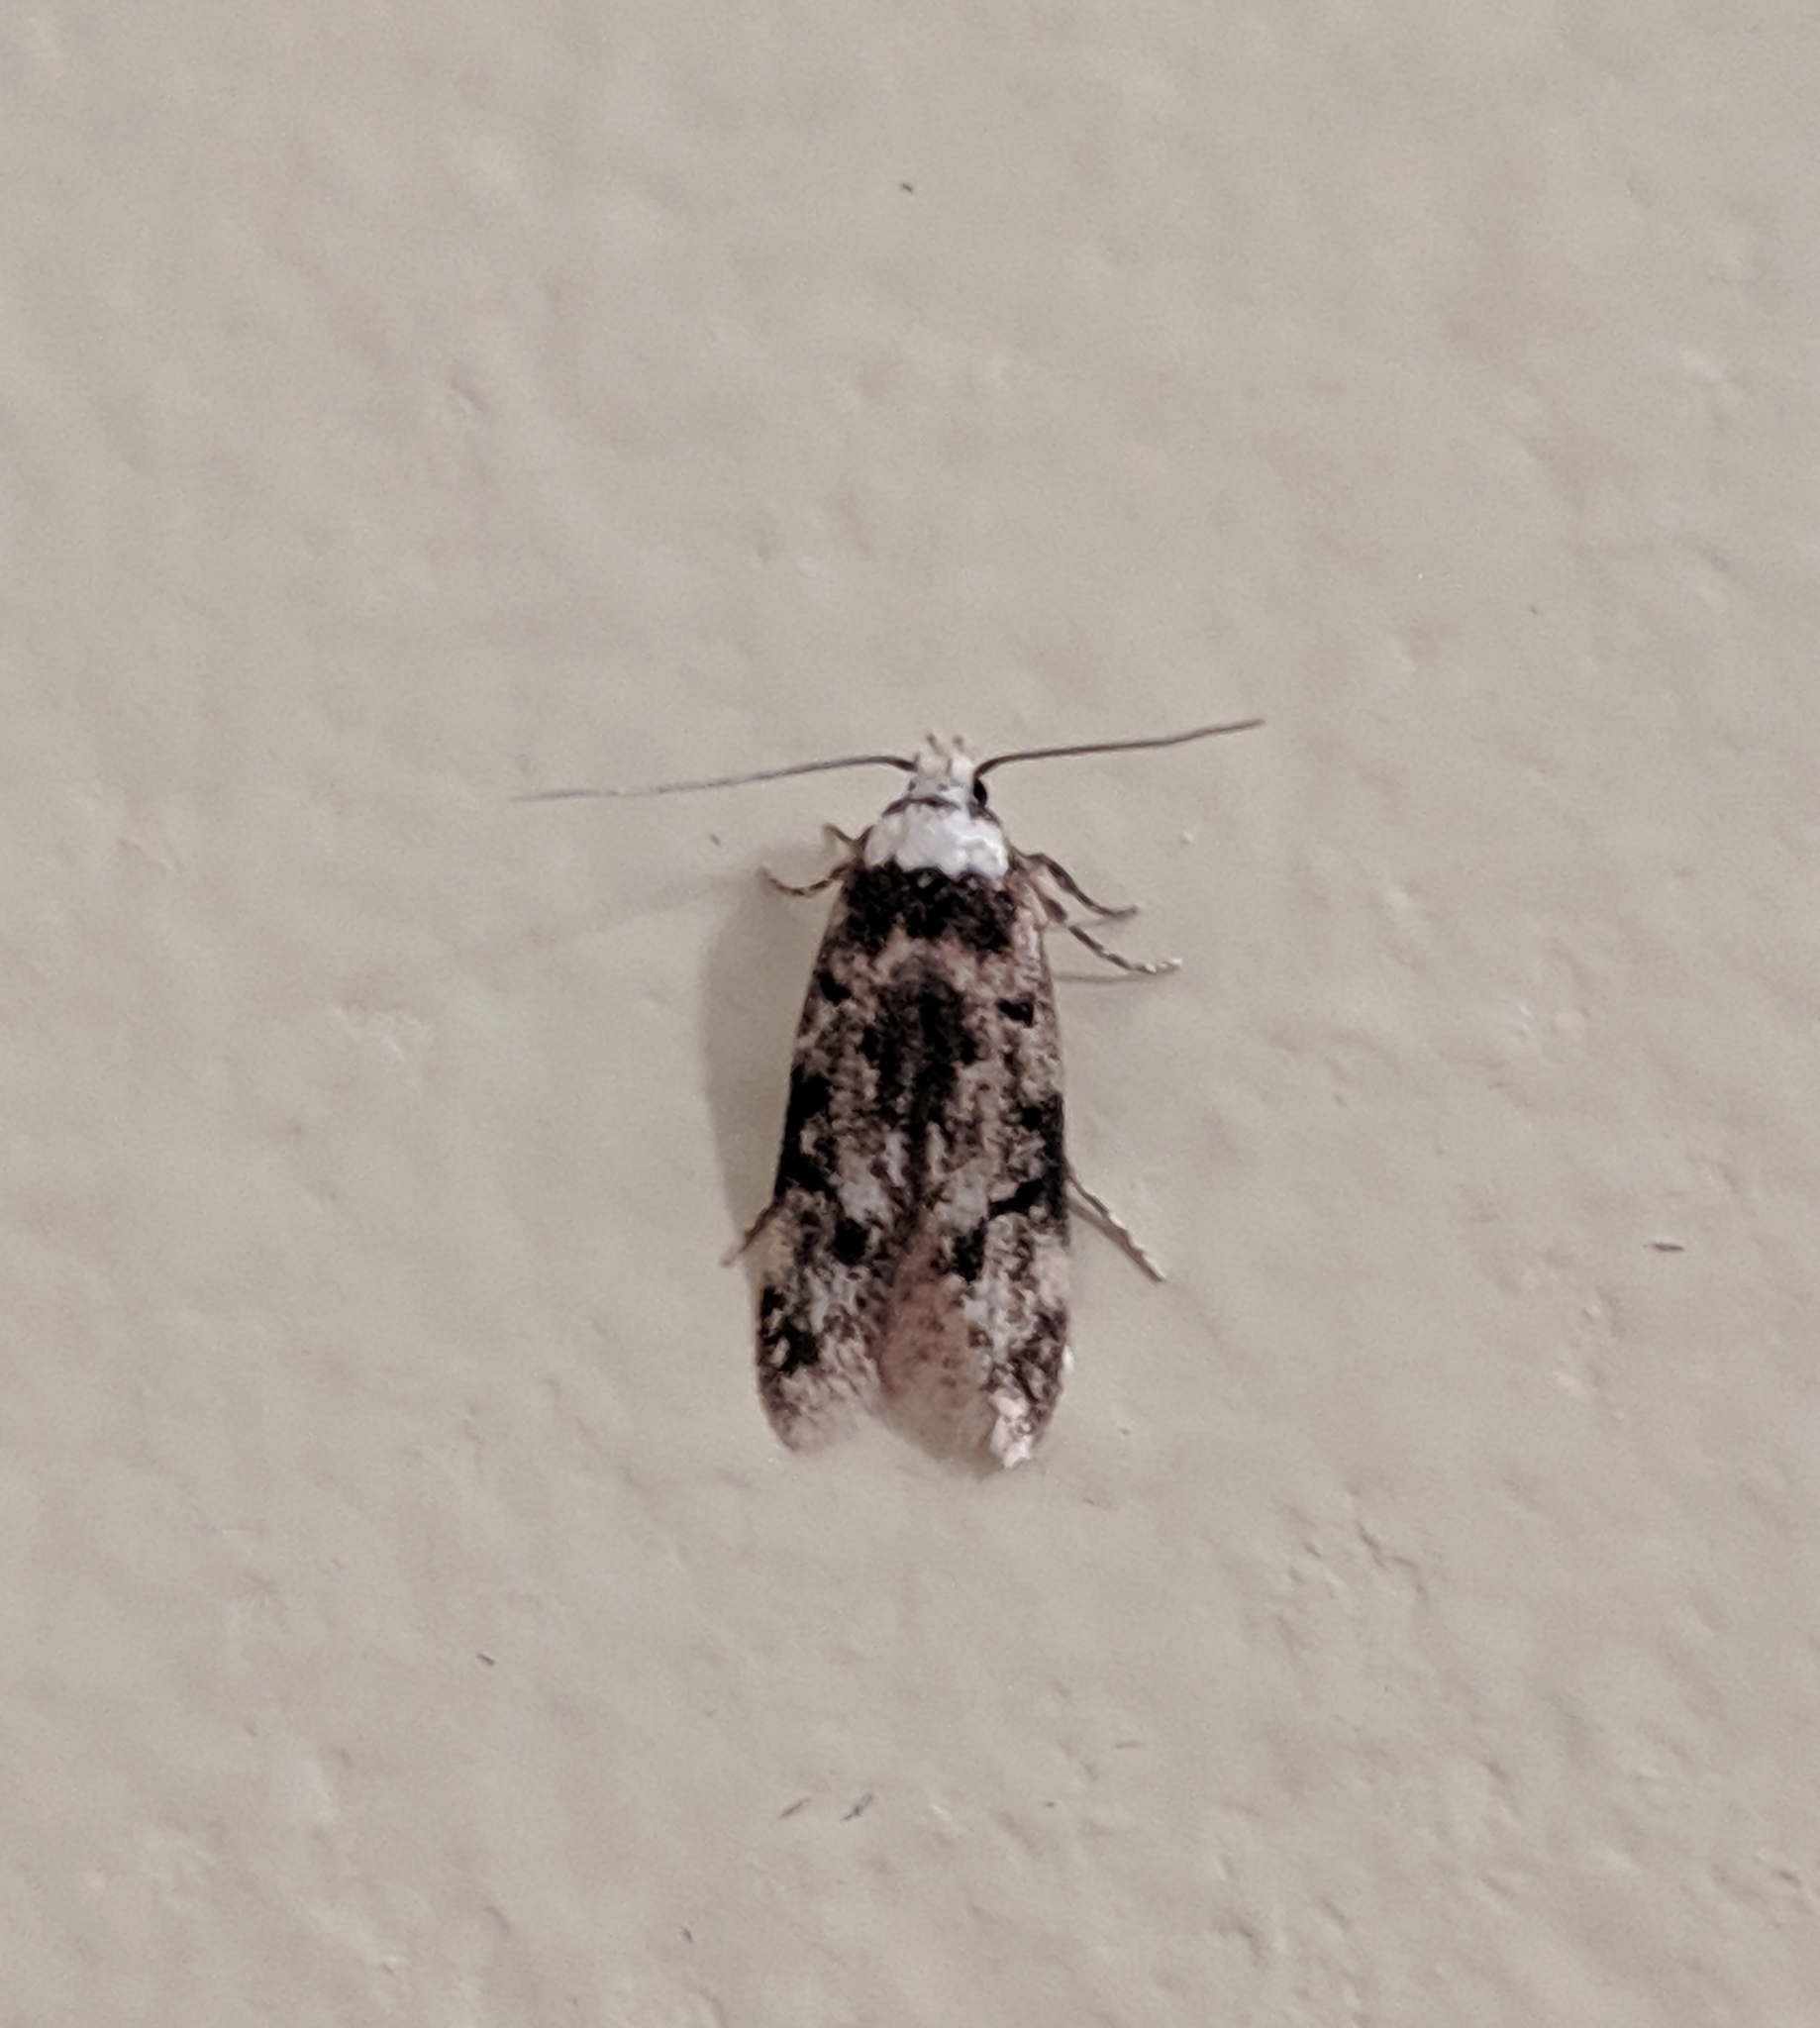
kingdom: Animalia
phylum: Arthropoda
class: Insecta
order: Lepidoptera
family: Oecophoridae
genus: Endrosis
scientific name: Endrosis sarcitrella
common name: White-shouldered house moth
